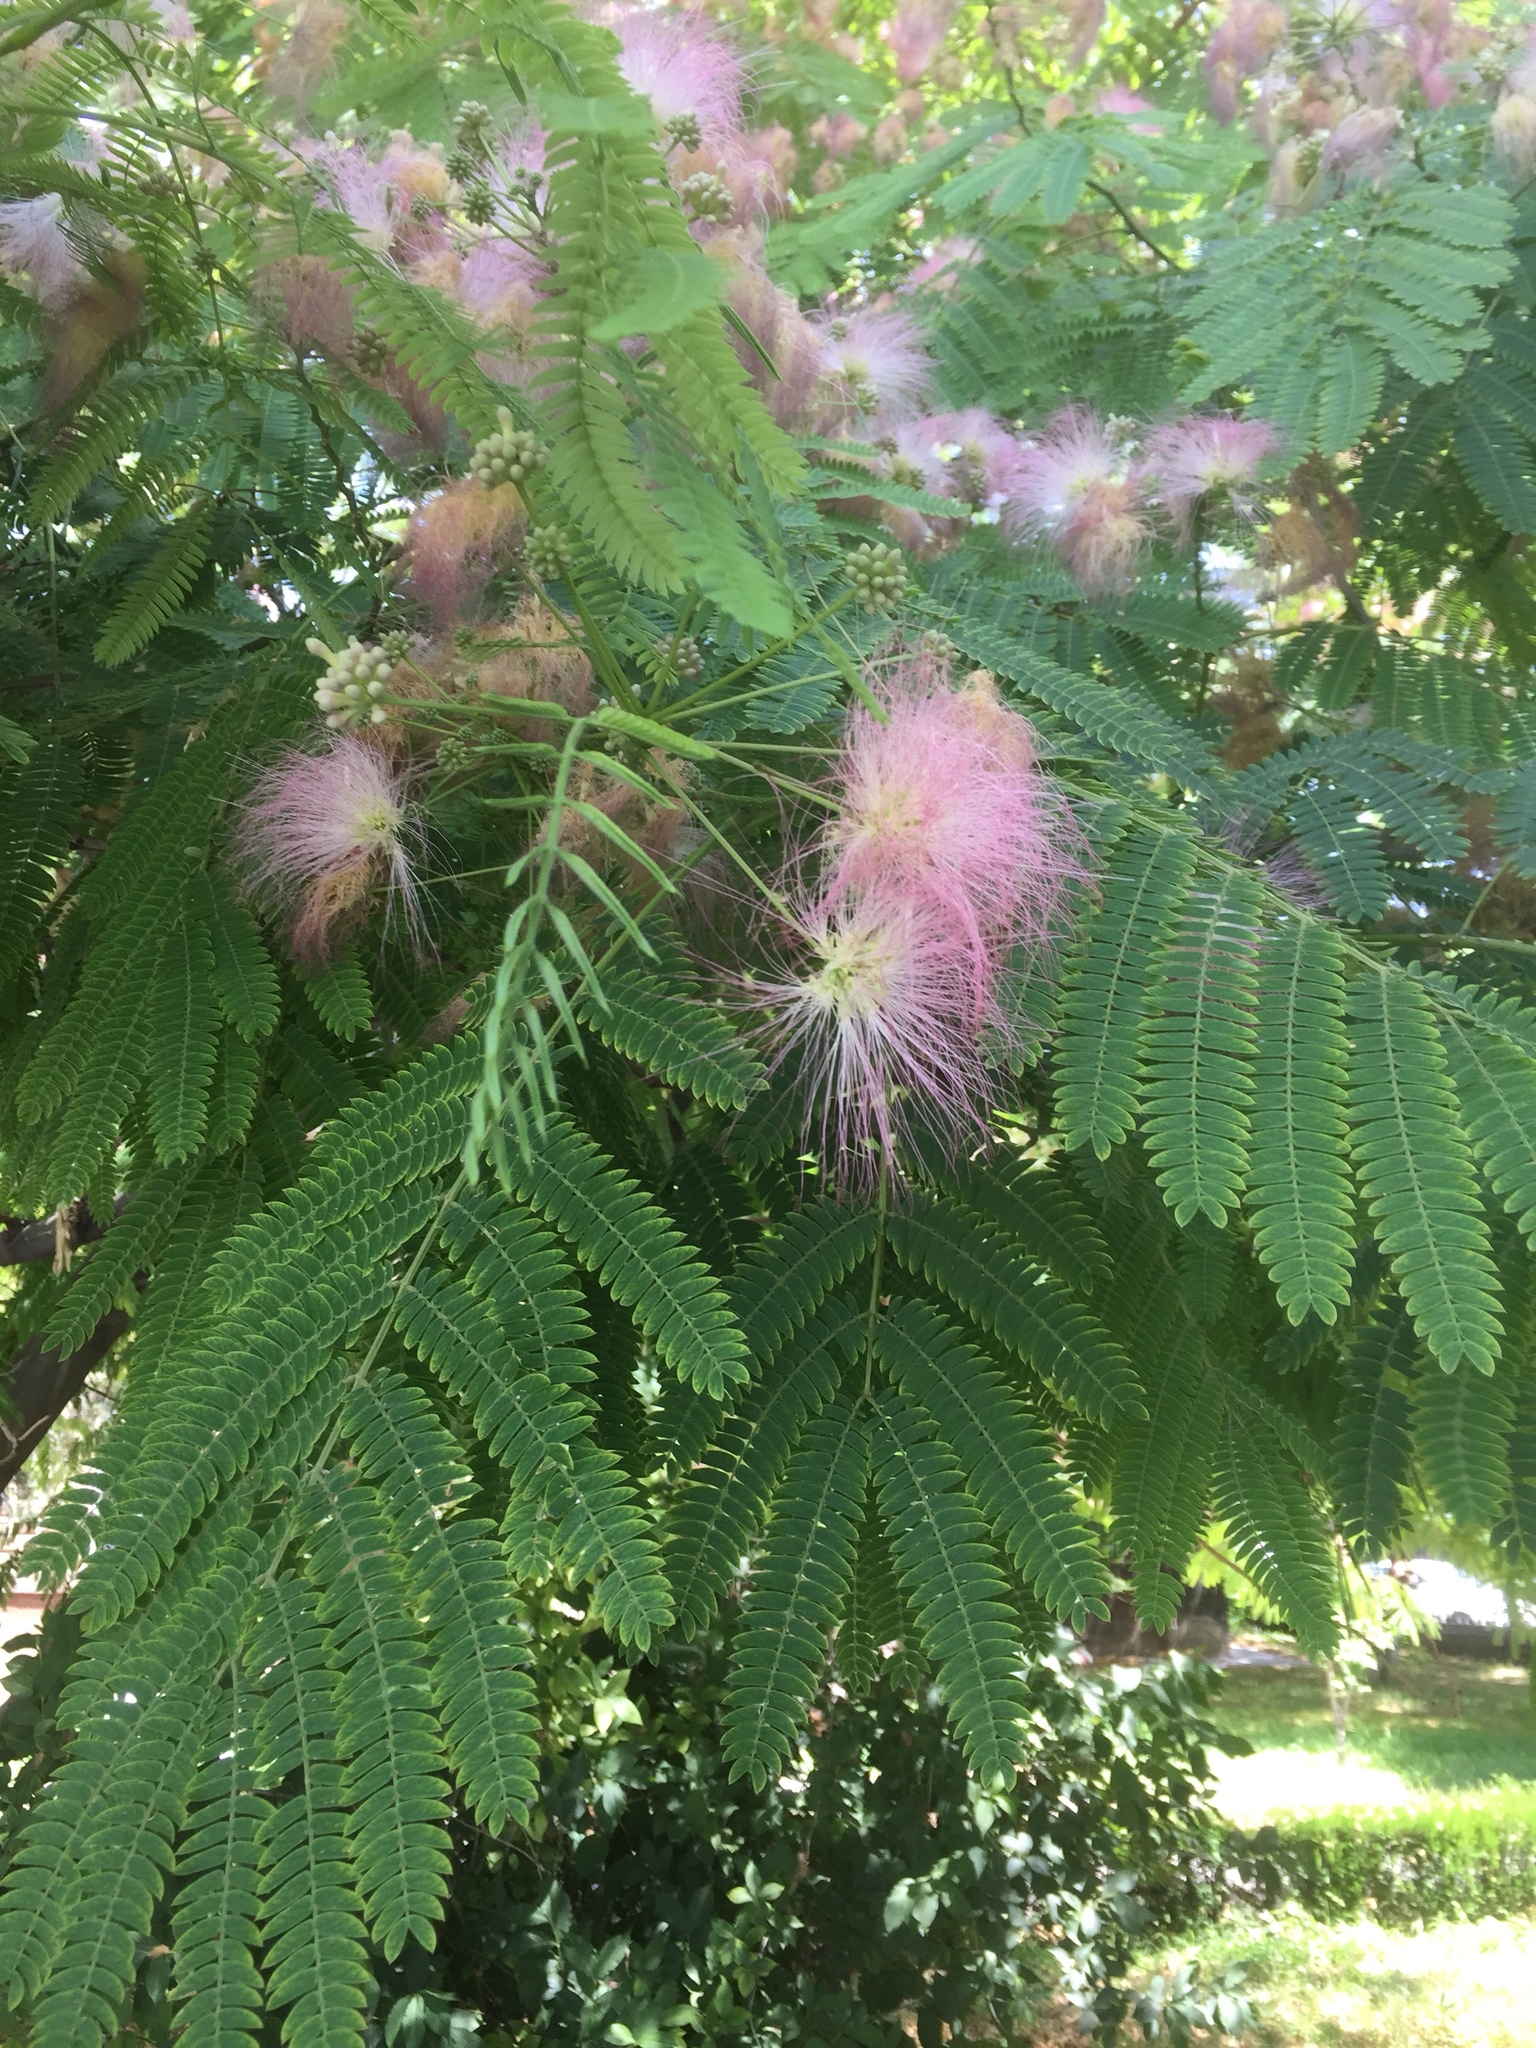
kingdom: Plantae
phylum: Tracheophyta
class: Magnoliopsida
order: Fabales
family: Fabaceae
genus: Albizia
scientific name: Albizia julibrissin
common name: Silktree
